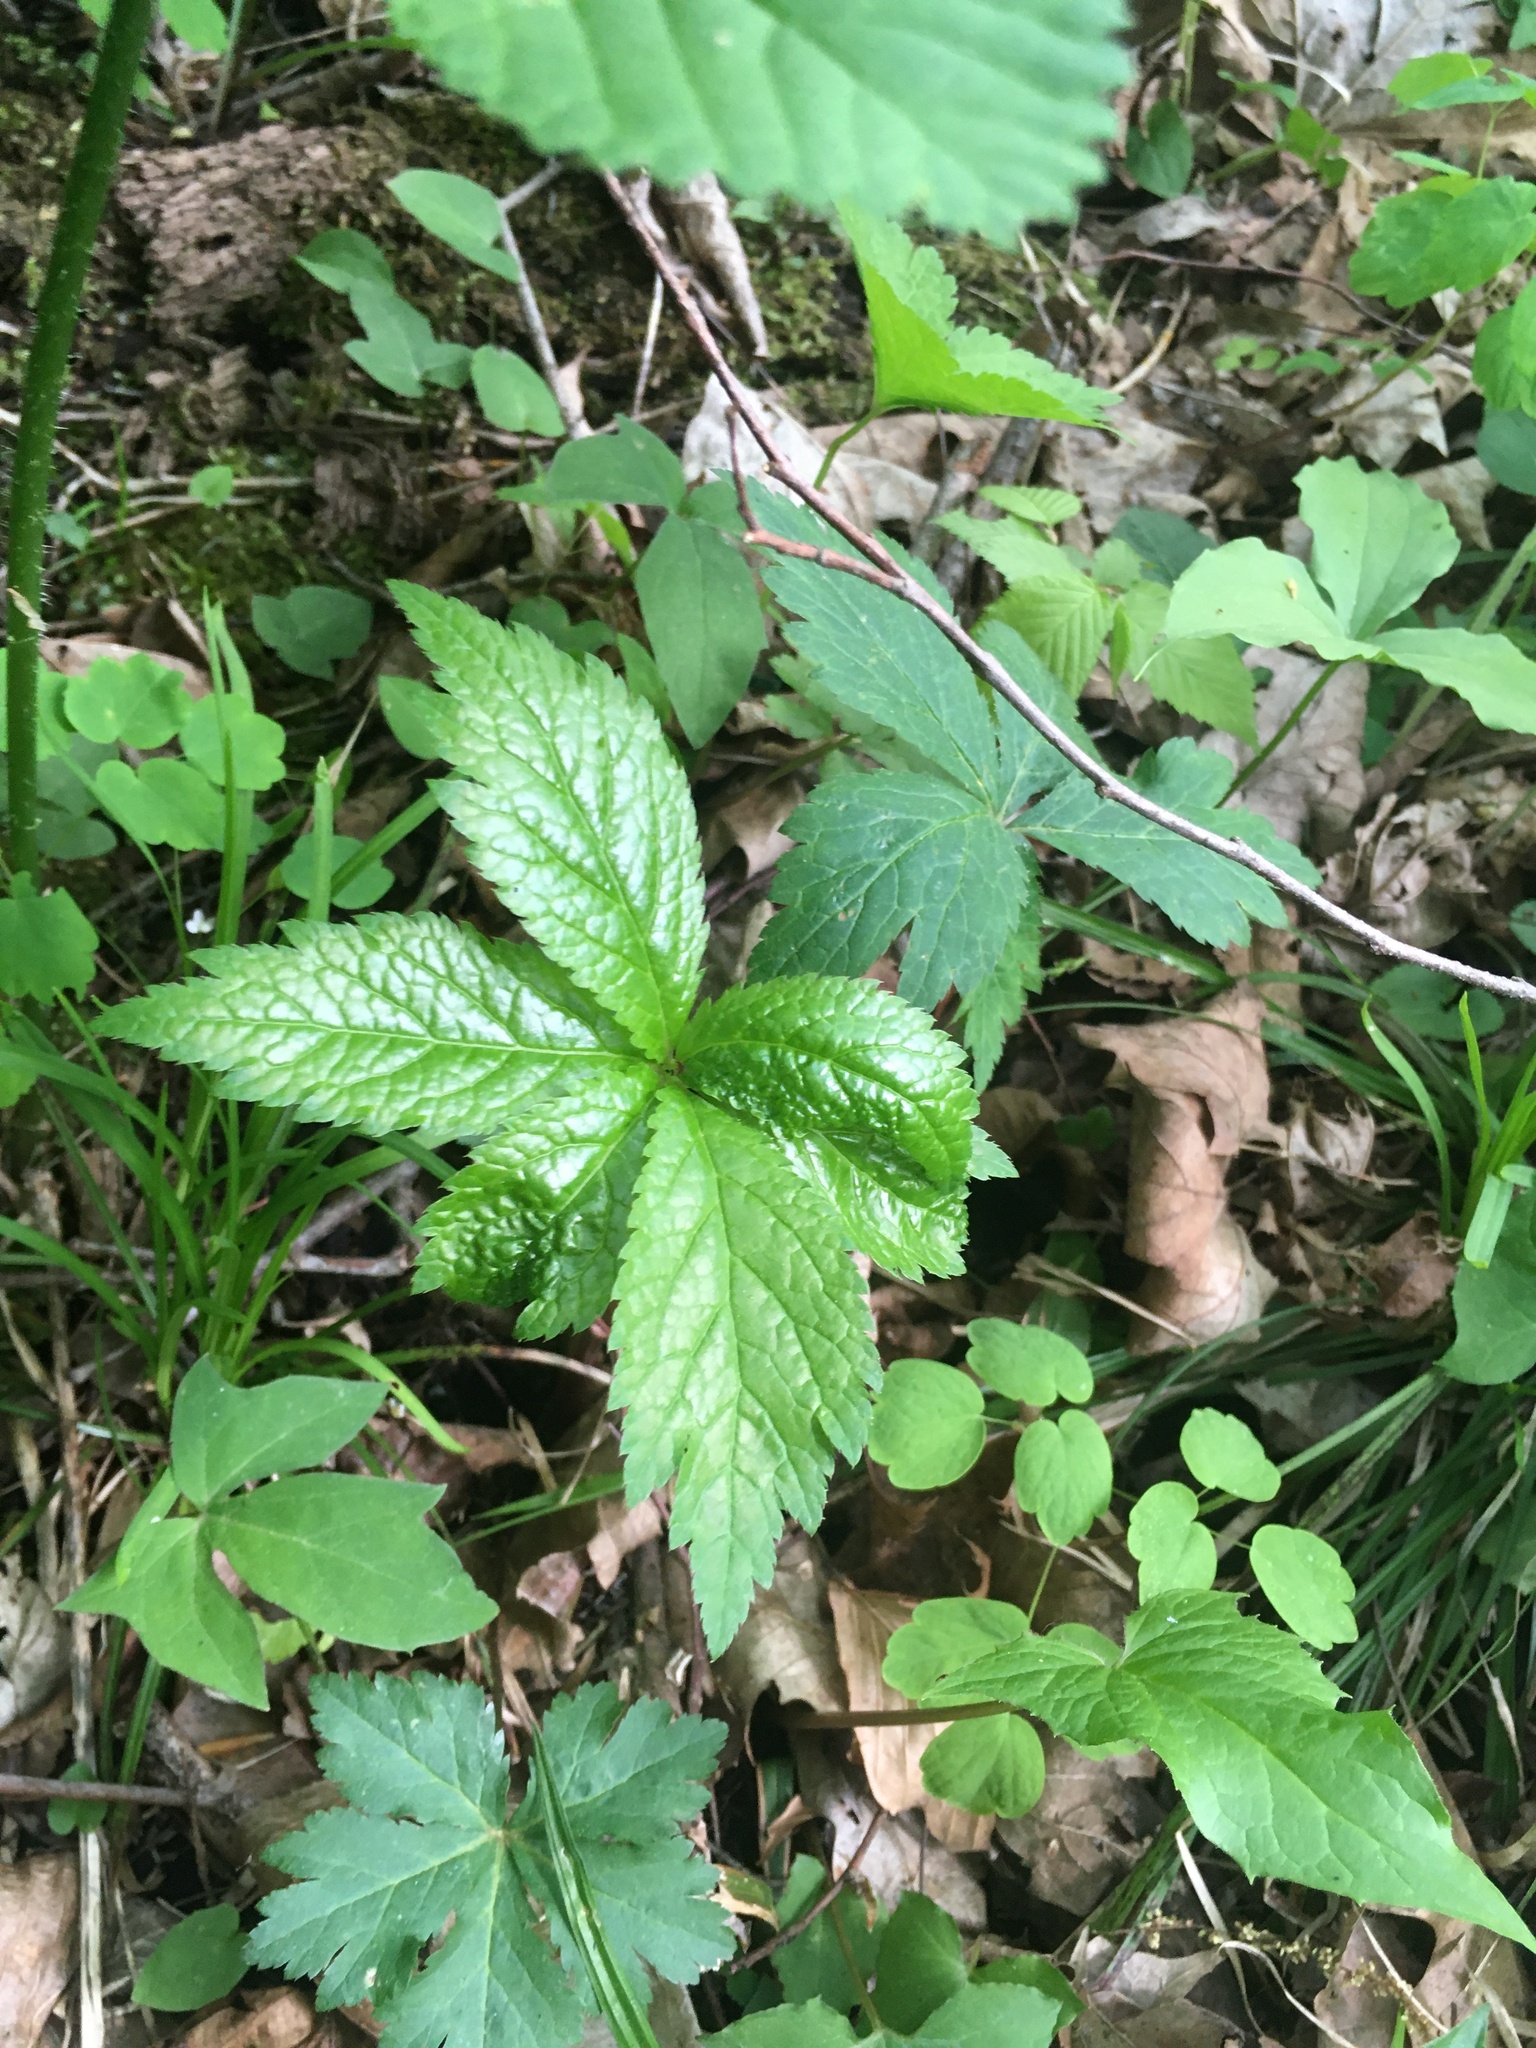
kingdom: Plantae
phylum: Tracheophyta
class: Magnoliopsida
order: Ranunculales
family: Ranunculaceae
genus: Hydrastis
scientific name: Hydrastis canadensis
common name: Goldenseal
